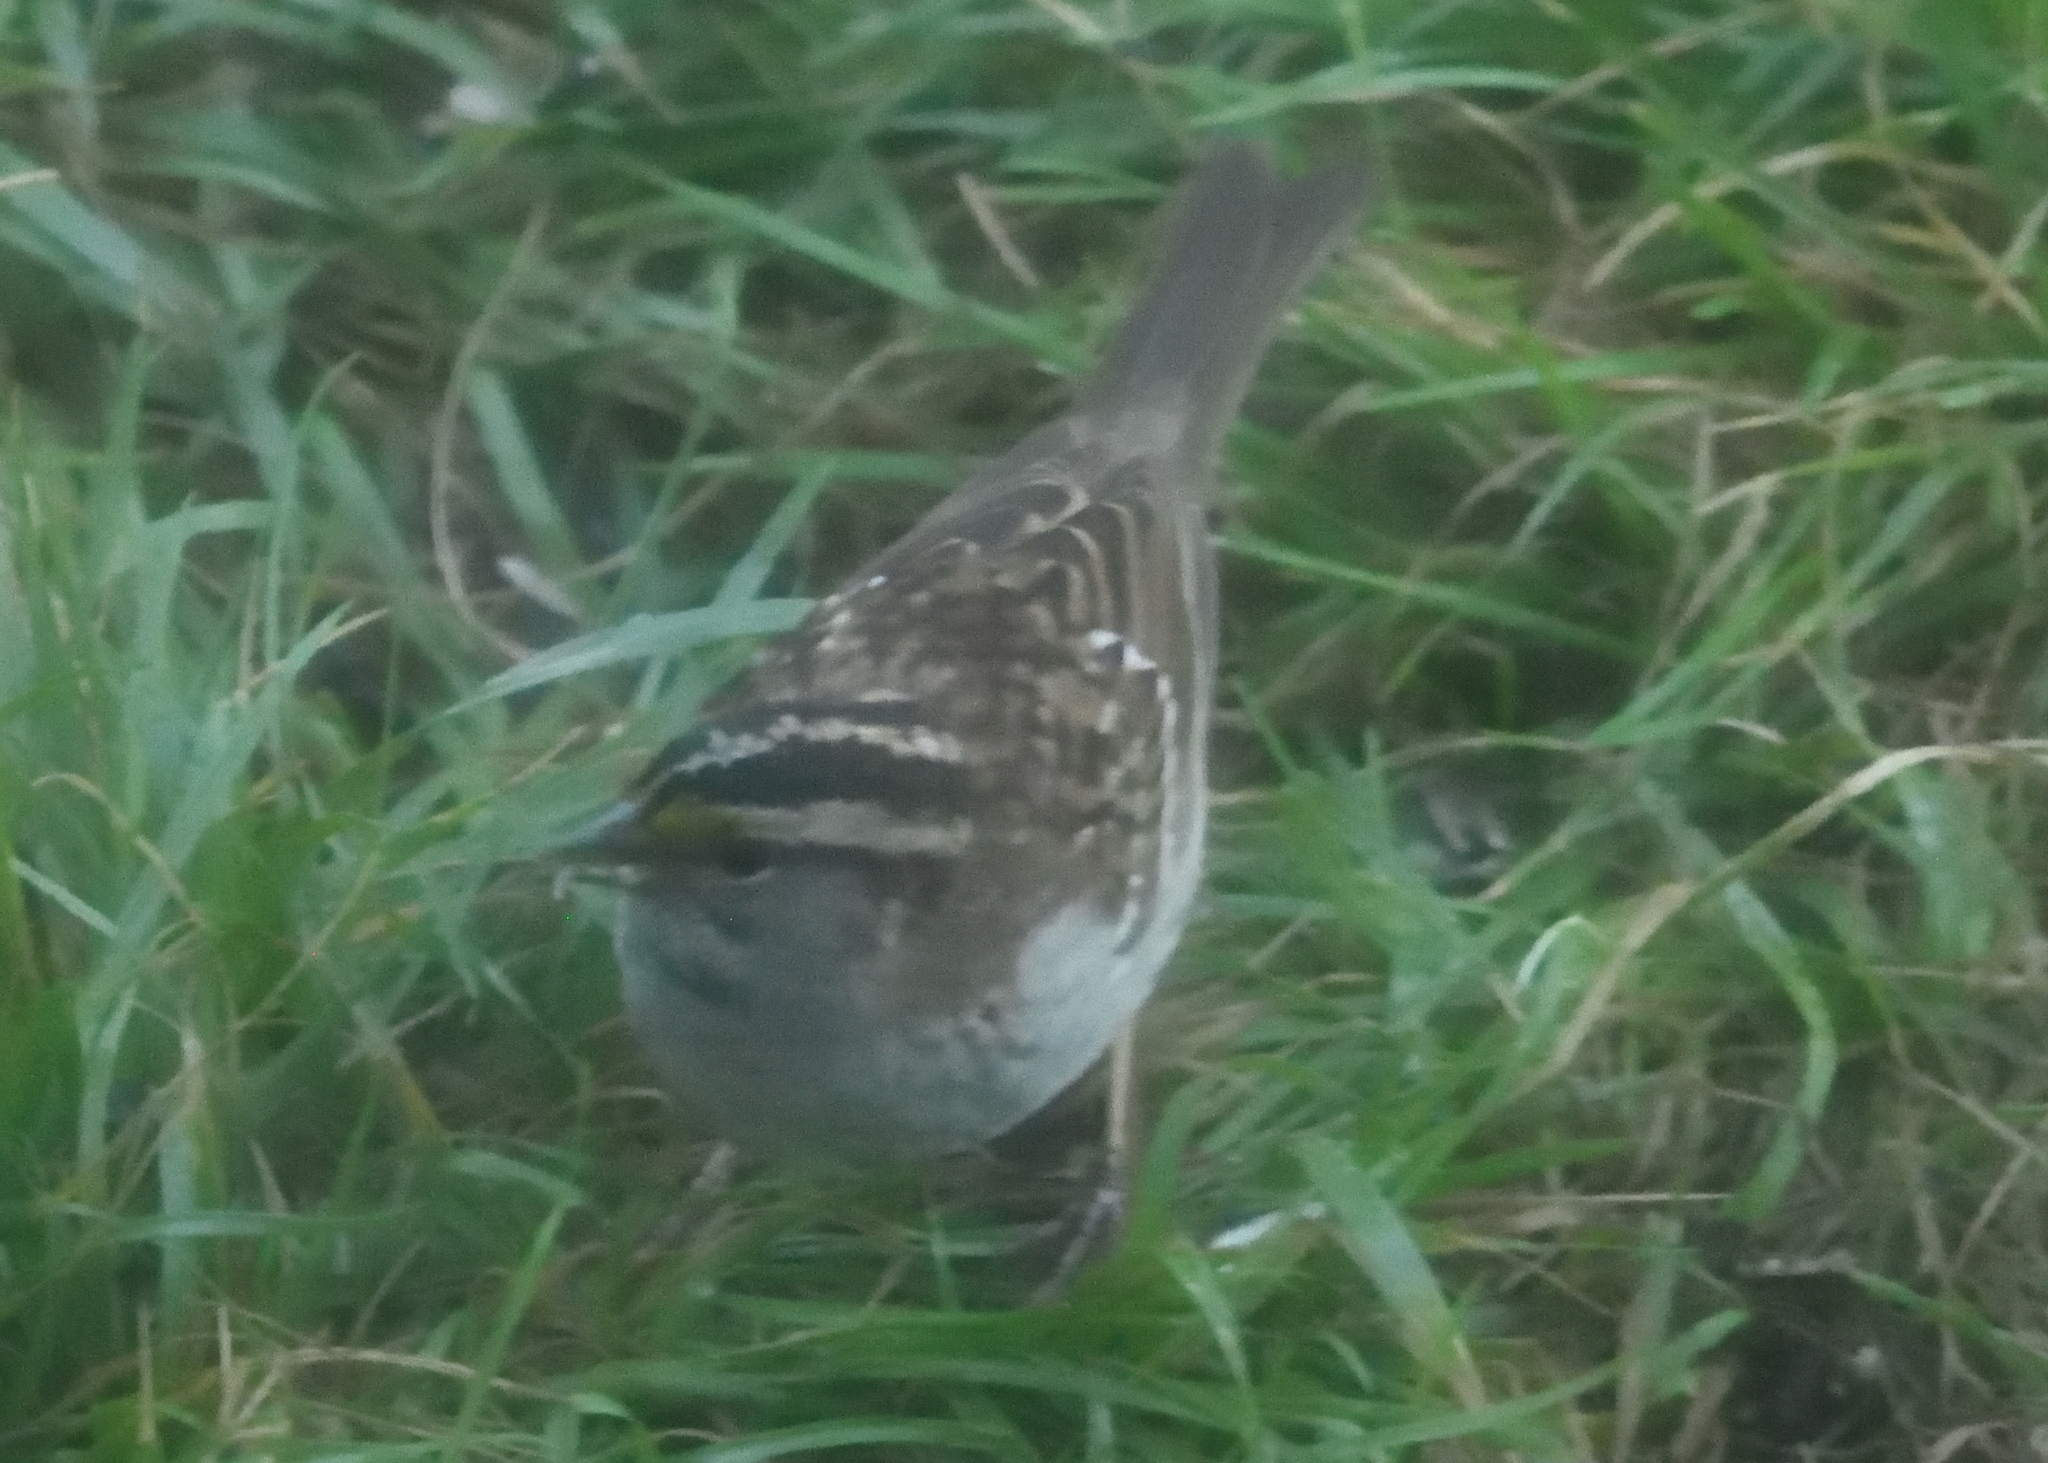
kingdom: Animalia
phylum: Chordata
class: Aves
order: Passeriformes
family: Passerellidae
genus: Zonotrichia
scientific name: Zonotrichia albicollis
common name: White-throated sparrow
